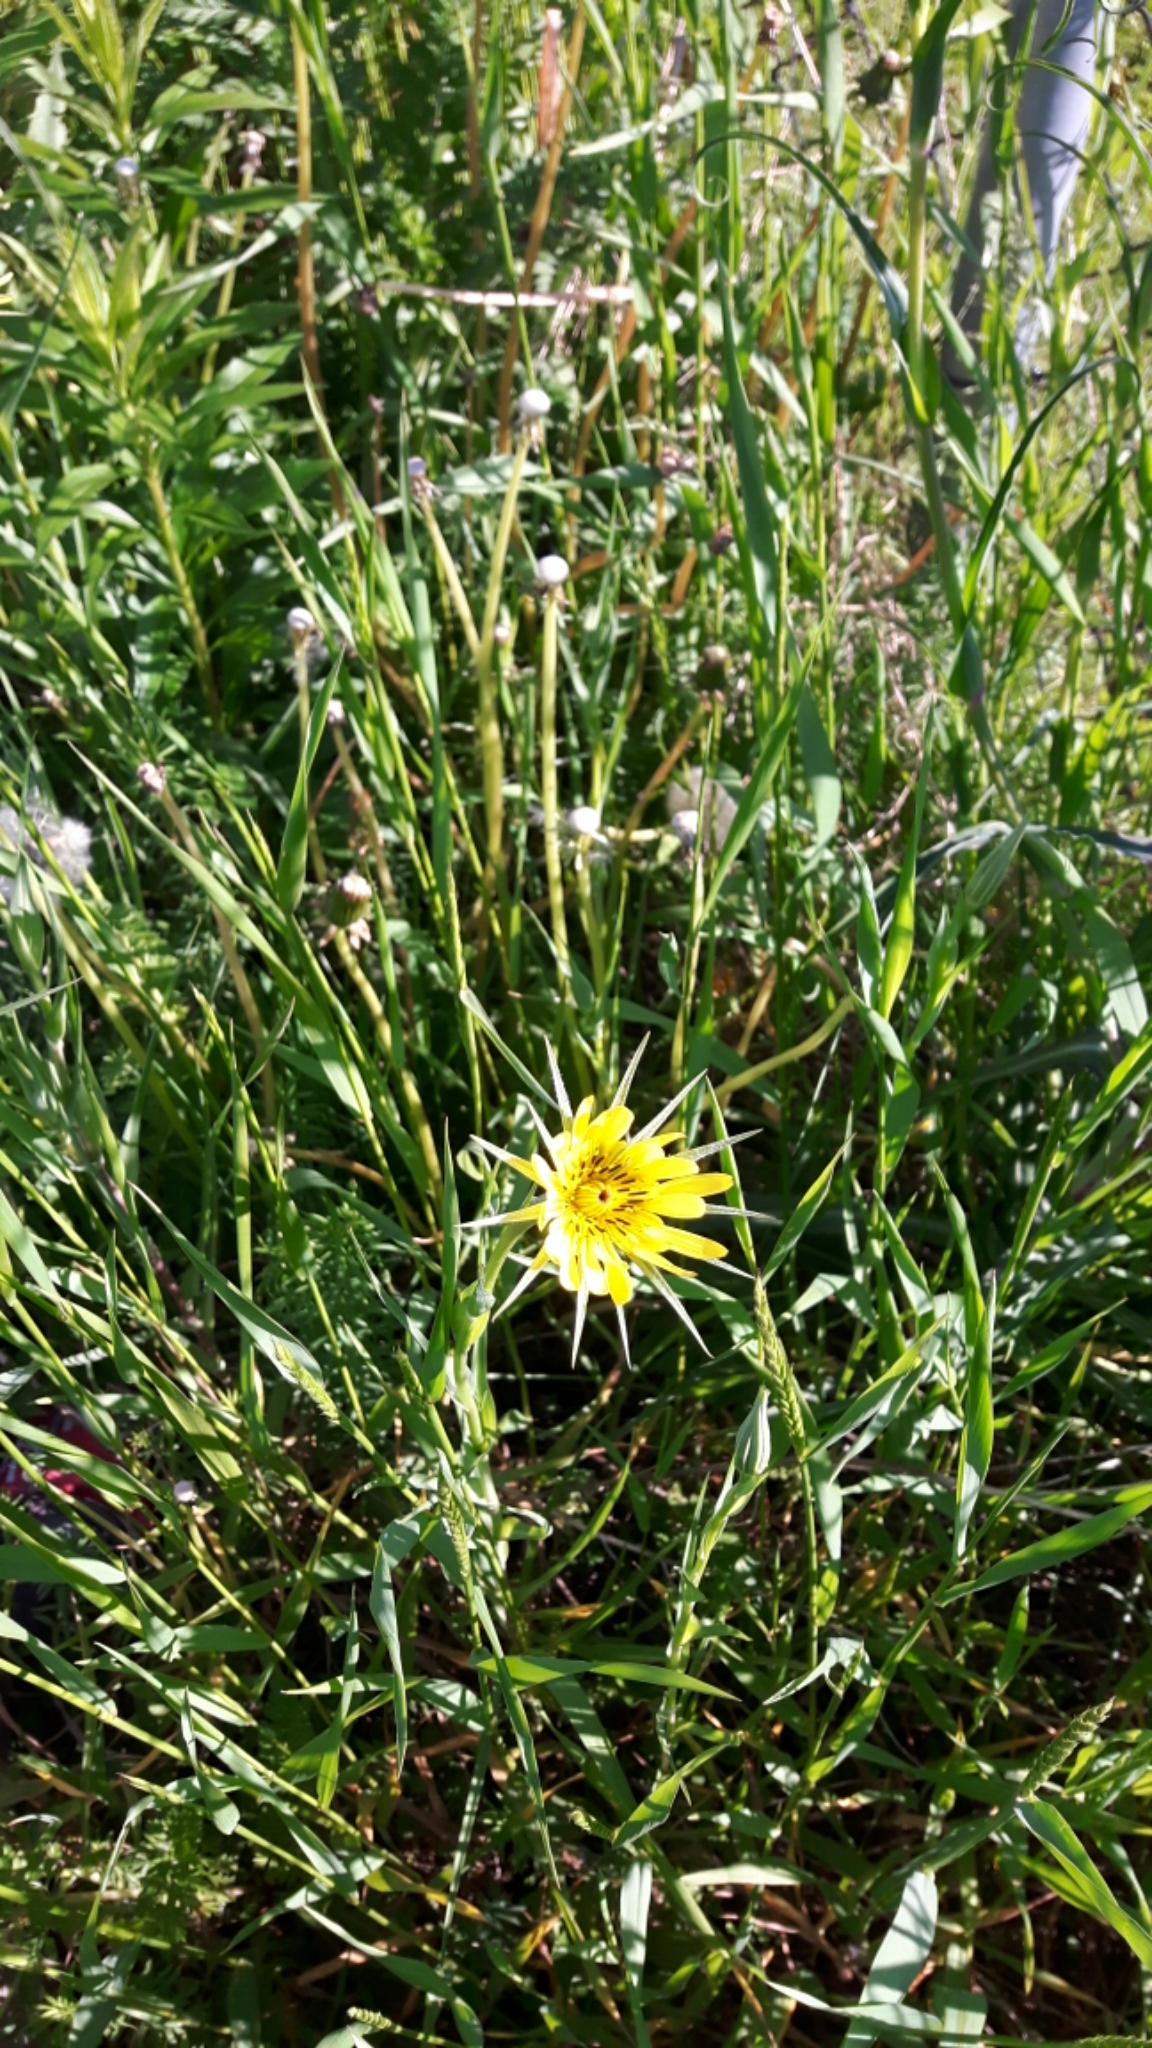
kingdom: Plantae
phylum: Tracheophyta
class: Magnoliopsida
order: Asterales
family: Asteraceae
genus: Tragopogon
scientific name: Tragopogon dubius
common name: Yellow salsify
